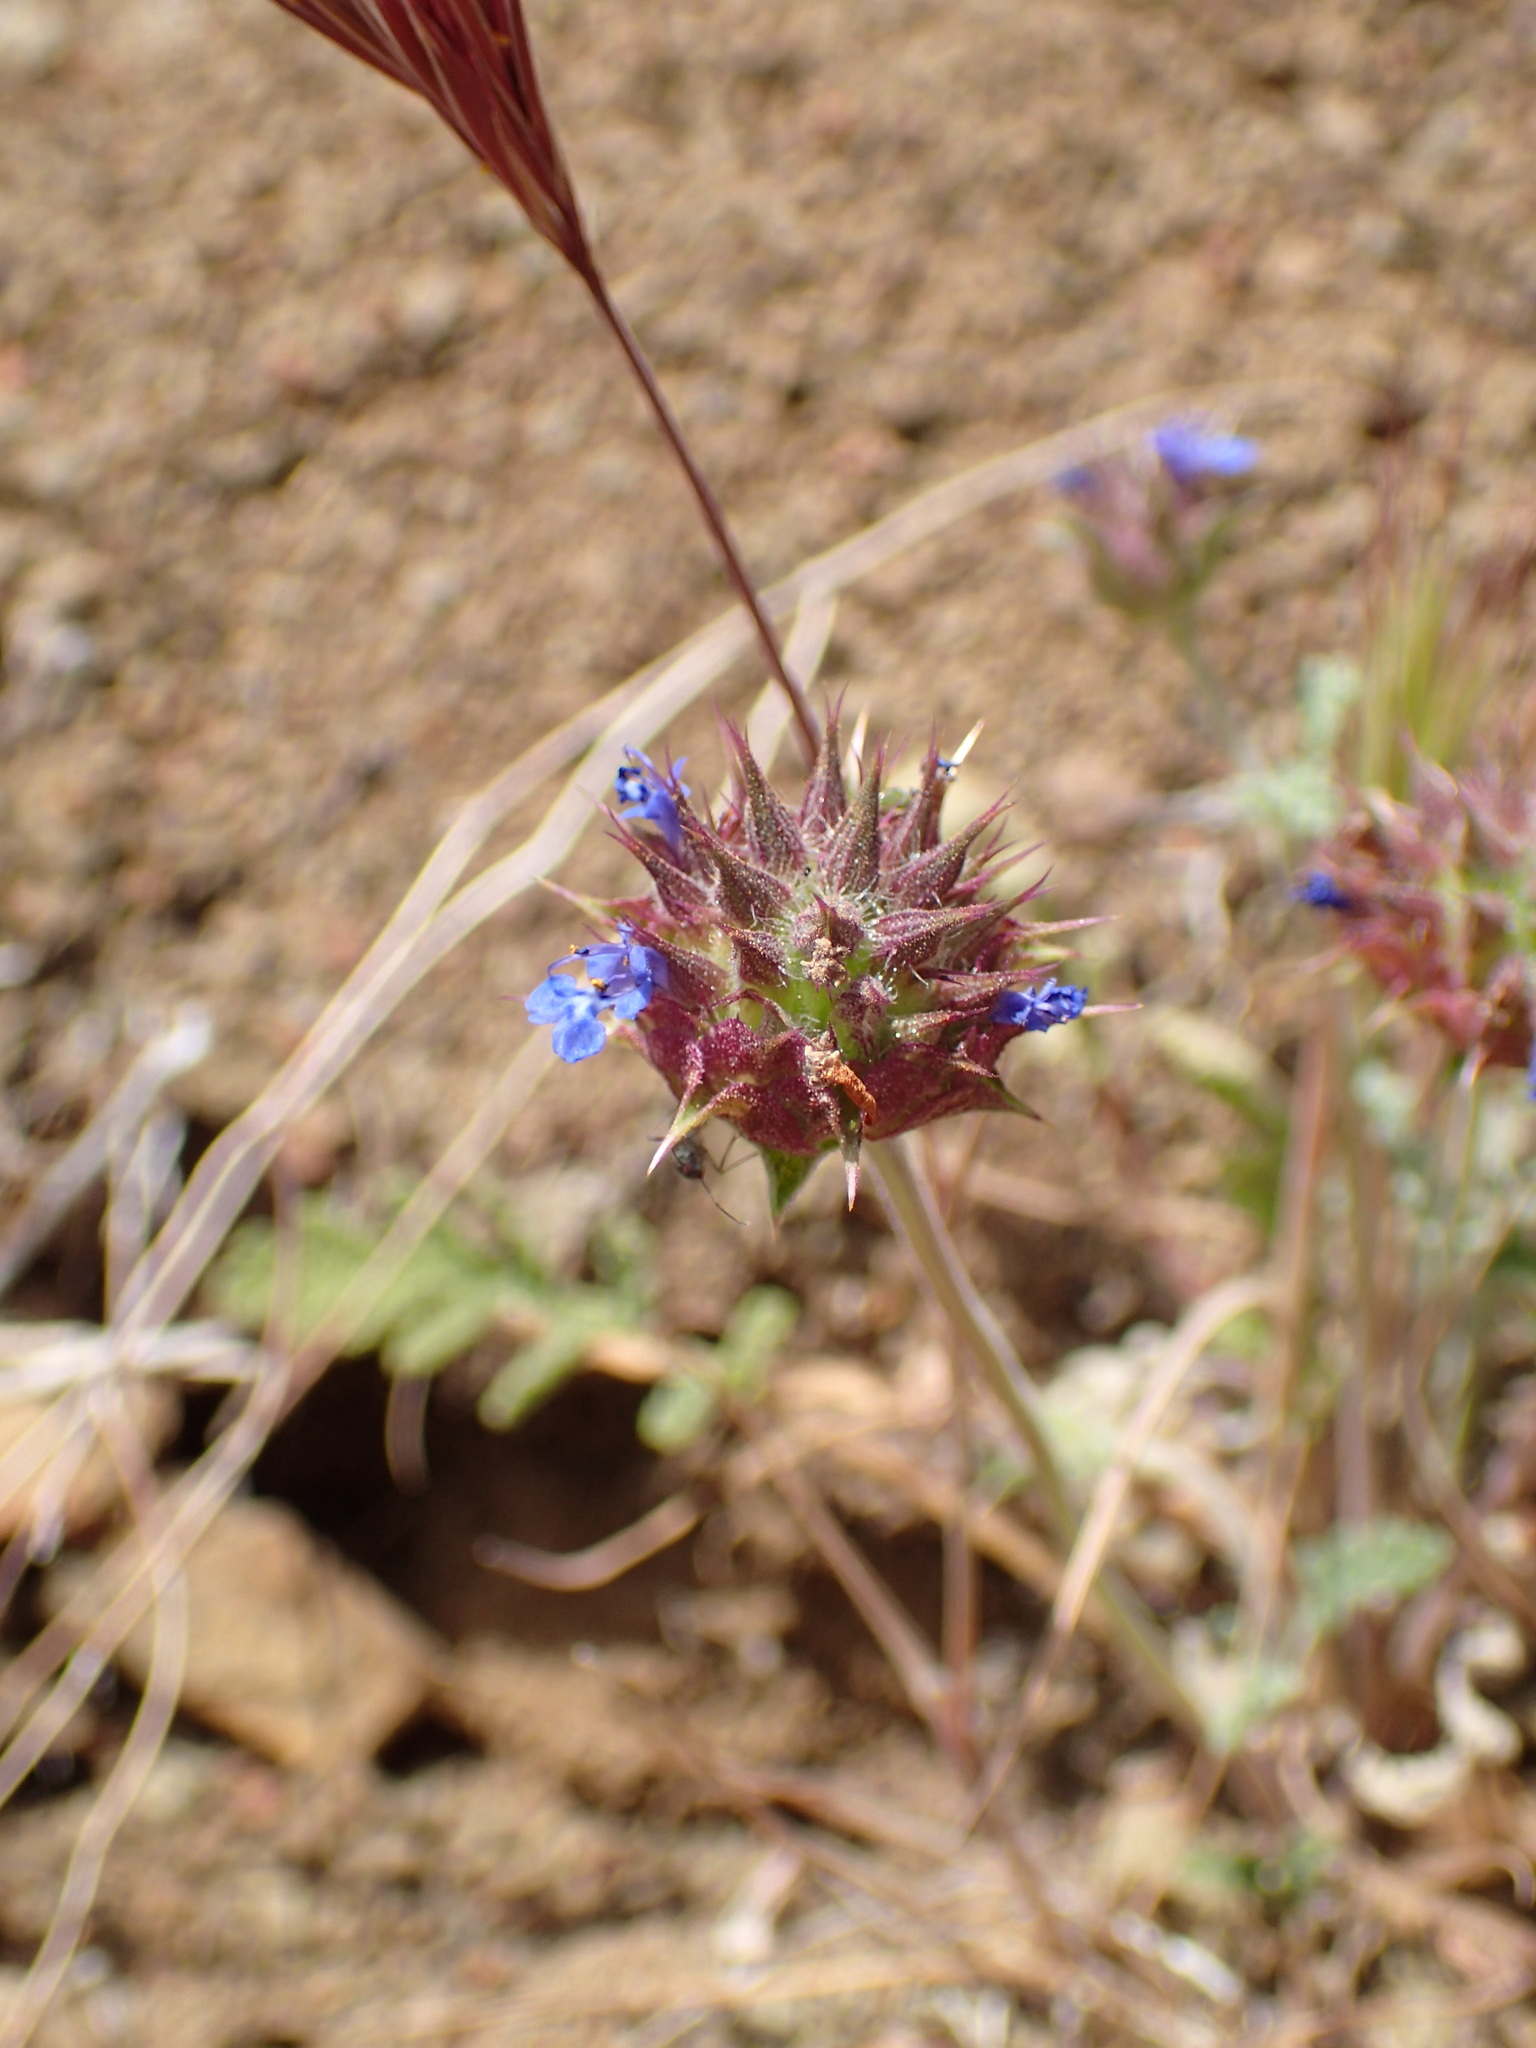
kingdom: Plantae
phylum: Tracheophyta
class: Magnoliopsida
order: Lamiales
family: Lamiaceae
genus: Salvia
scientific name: Salvia columbariae
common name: Chia
